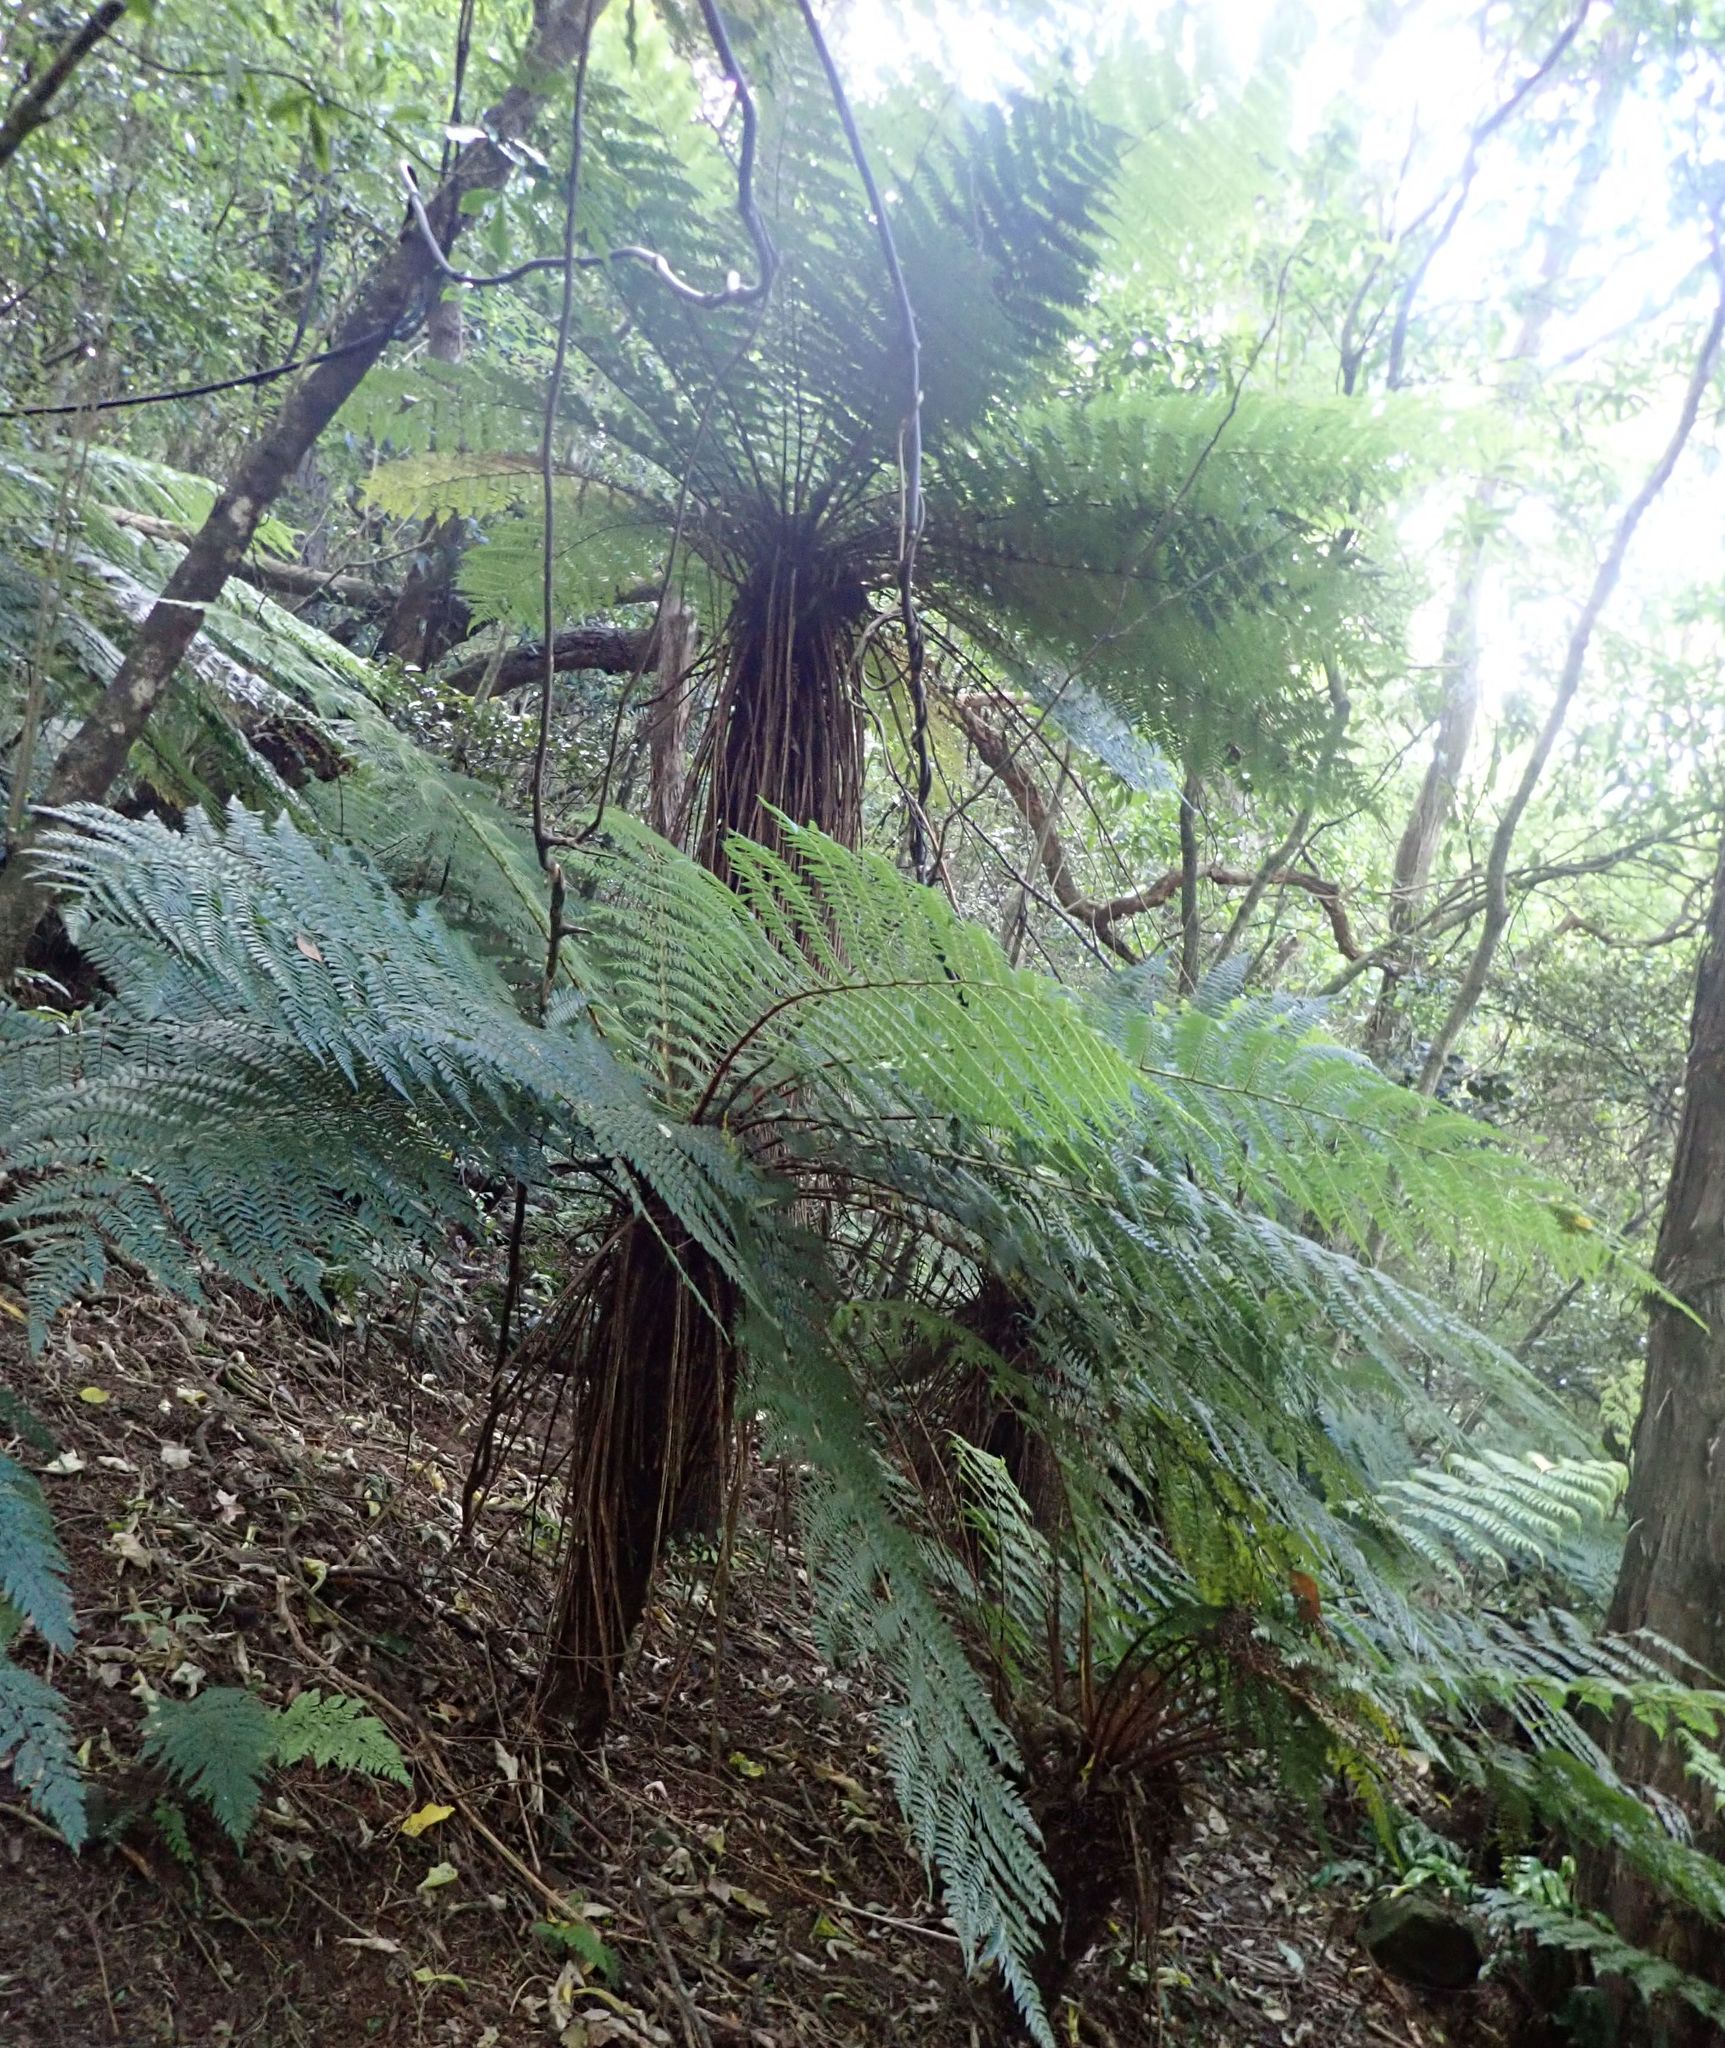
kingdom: Plantae
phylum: Tracheophyta
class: Polypodiopsida
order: Cyatheales
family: Cyatheaceae
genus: Alsophila
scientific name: Alsophila smithii
